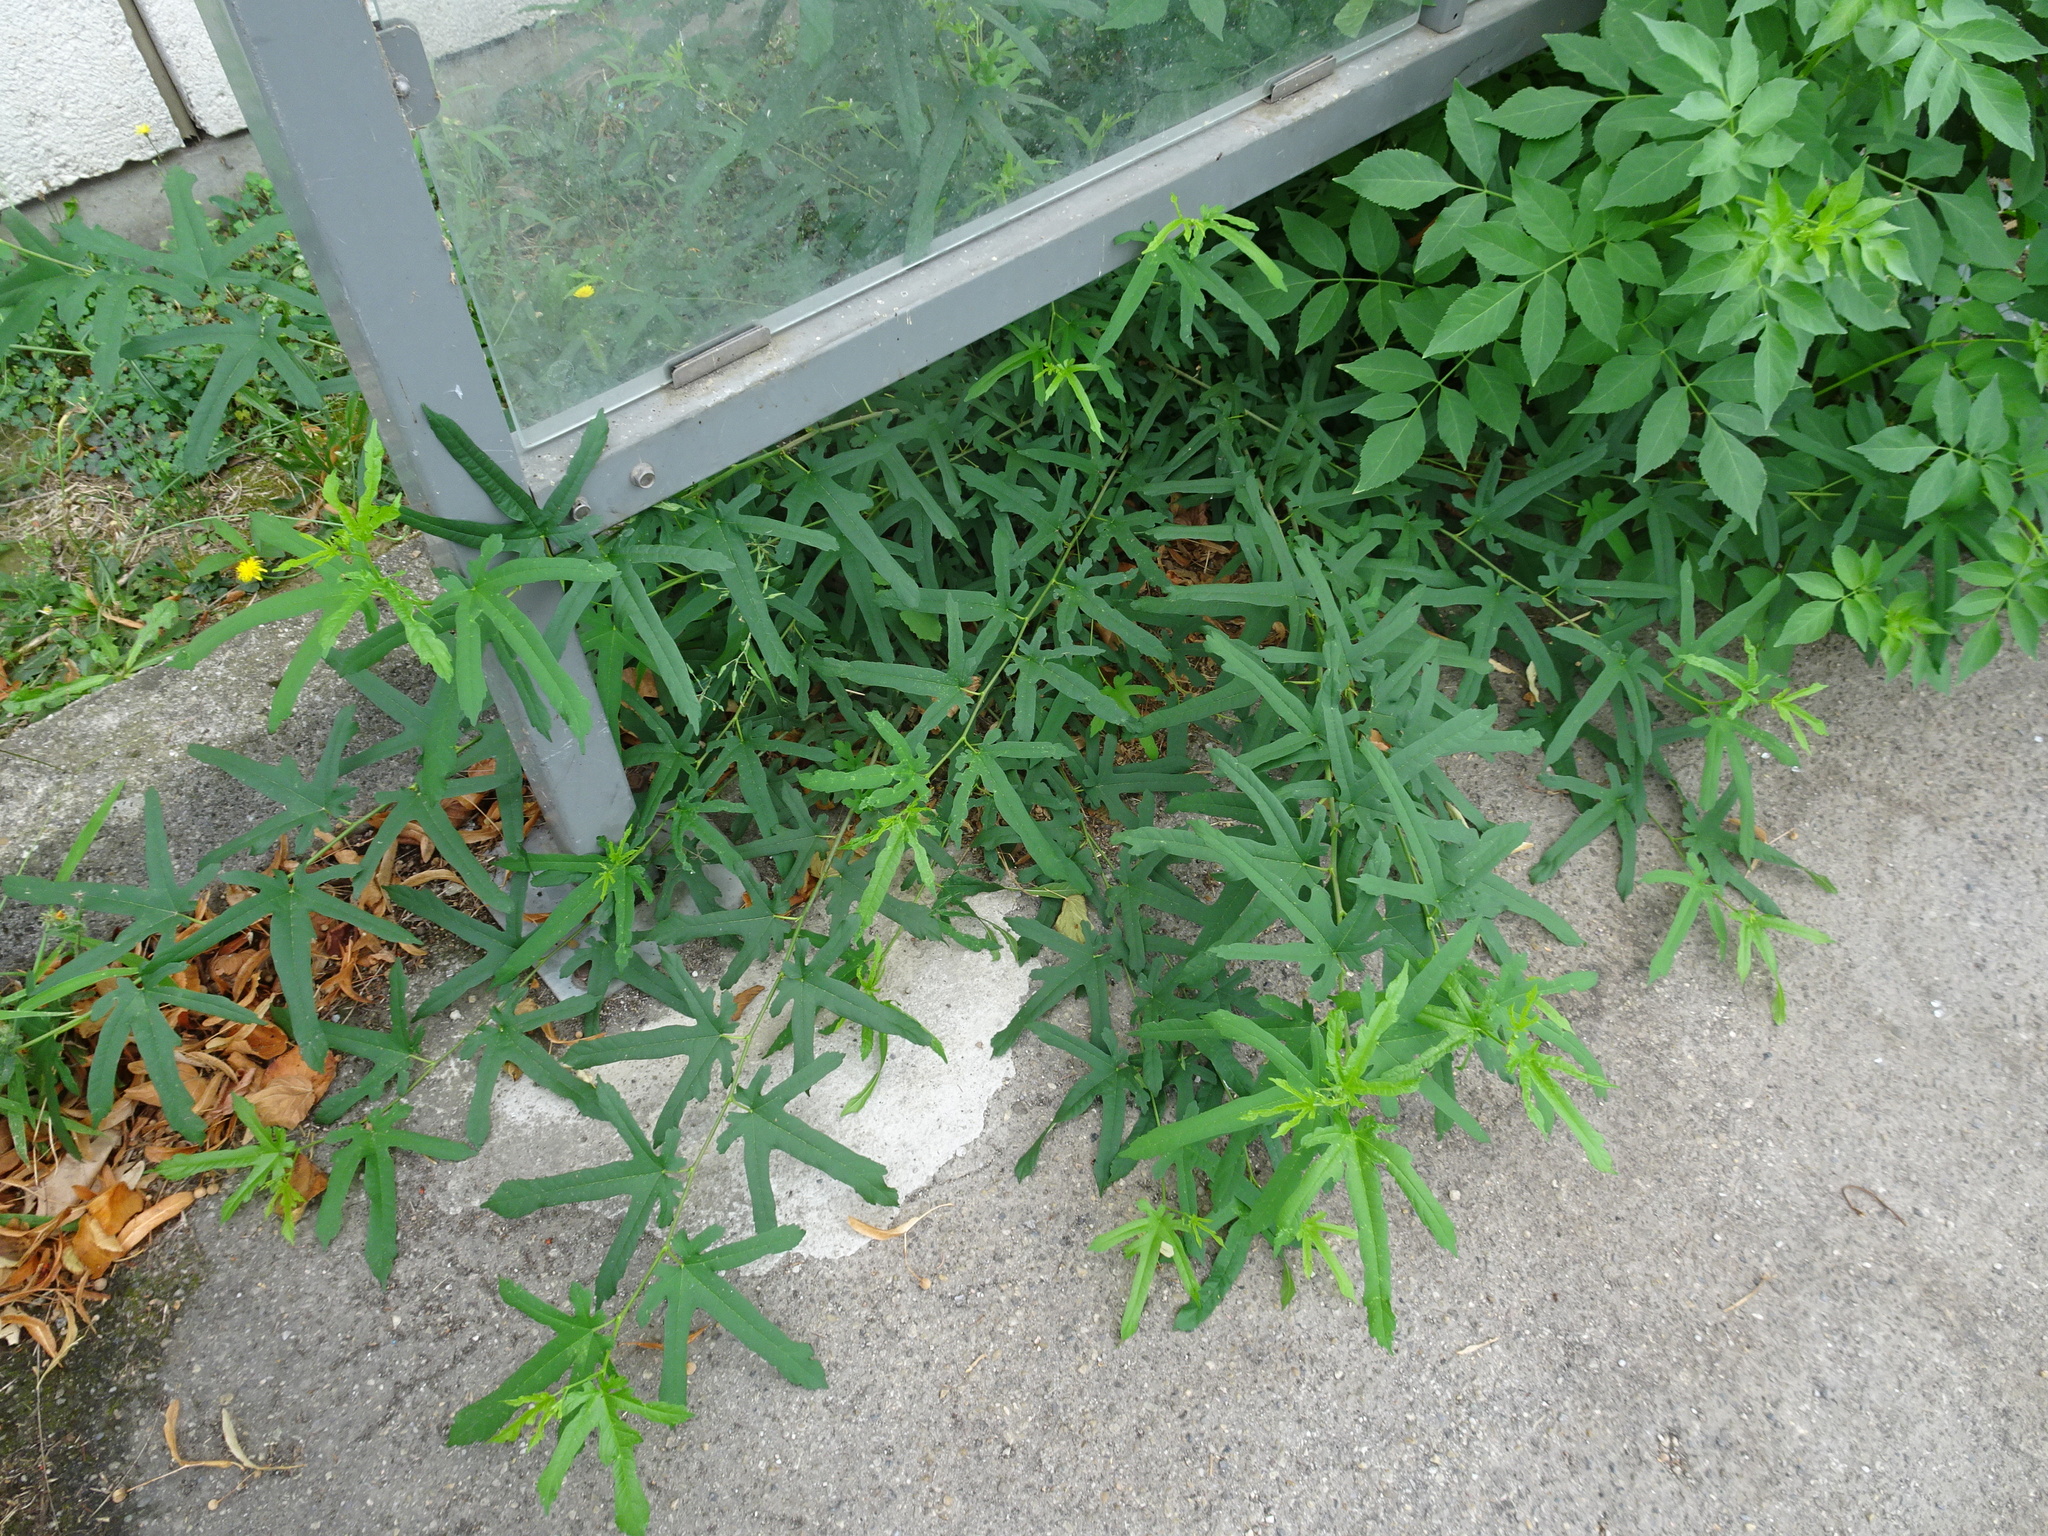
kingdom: Plantae
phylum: Tracheophyta
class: Magnoliopsida
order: Rosales
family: Moraceae
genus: Ficus
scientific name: Ficus carica
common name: Fig
